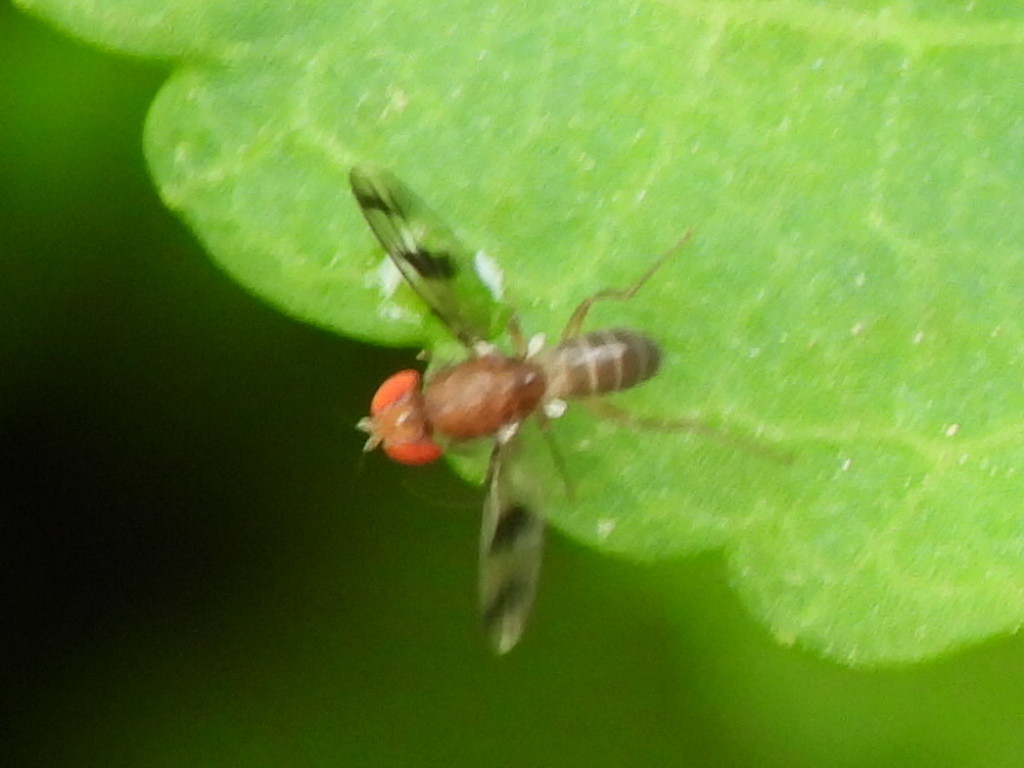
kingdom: Animalia
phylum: Arthropoda
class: Insecta
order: Diptera
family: Drosophilidae
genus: Chymomyza
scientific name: Chymomyza amoena
